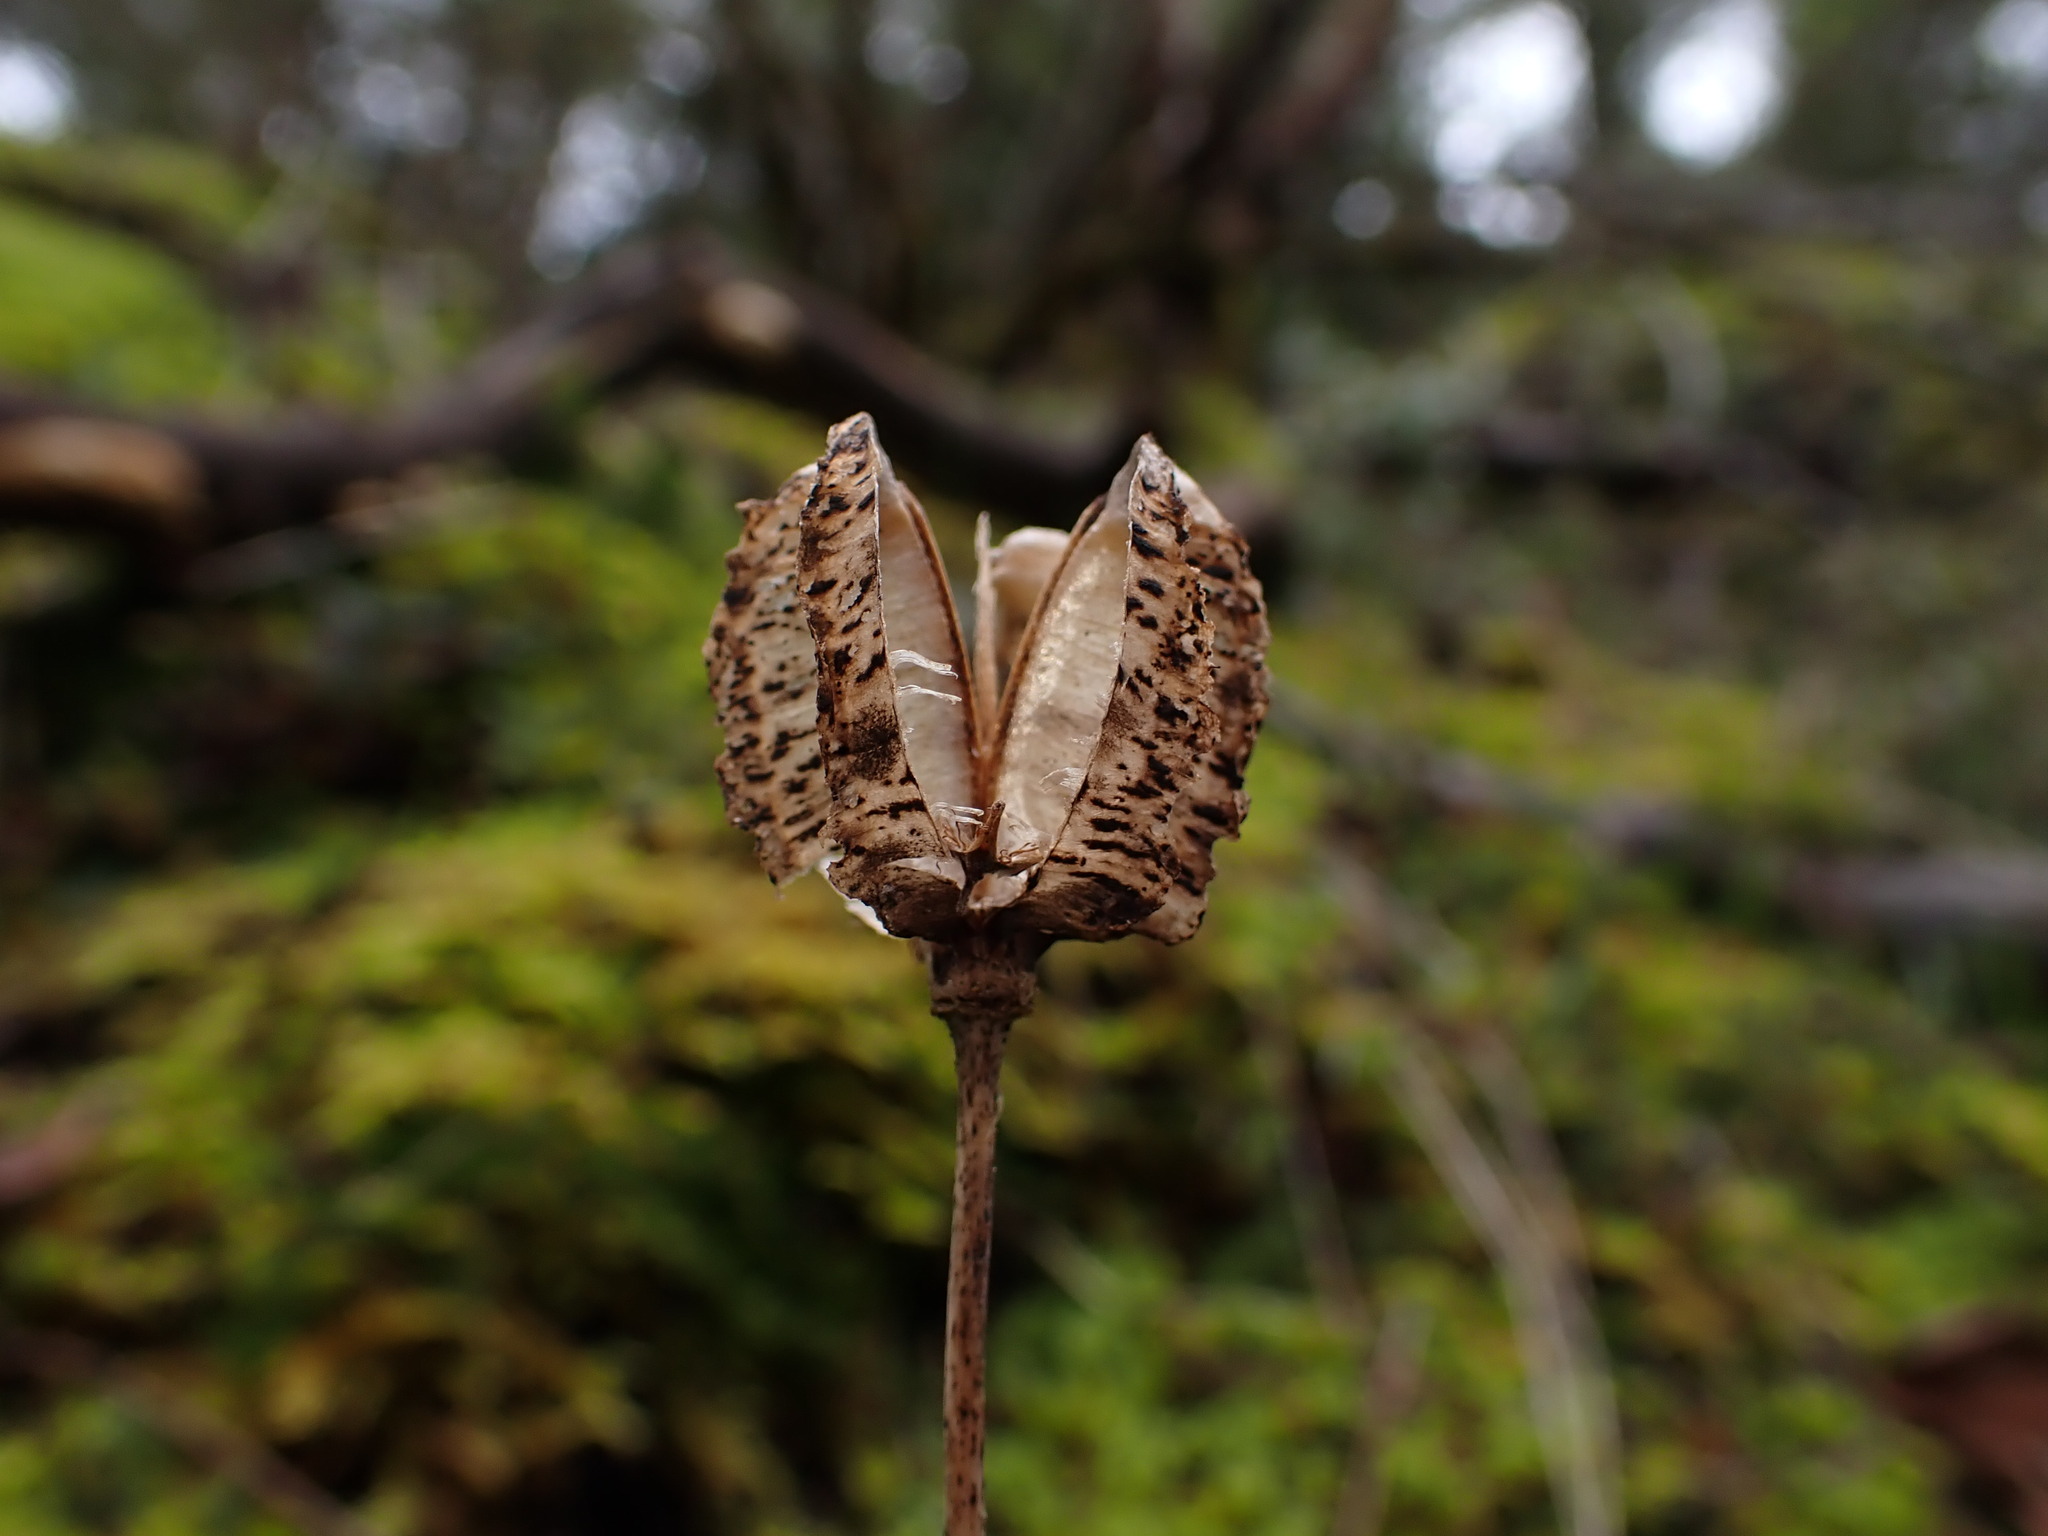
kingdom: Plantae
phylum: Tracheophyta
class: Liliopsida
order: Liliales
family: Liliaceae
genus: Fritillaria
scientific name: Fritillaria affinis
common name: Ojai fritillary
